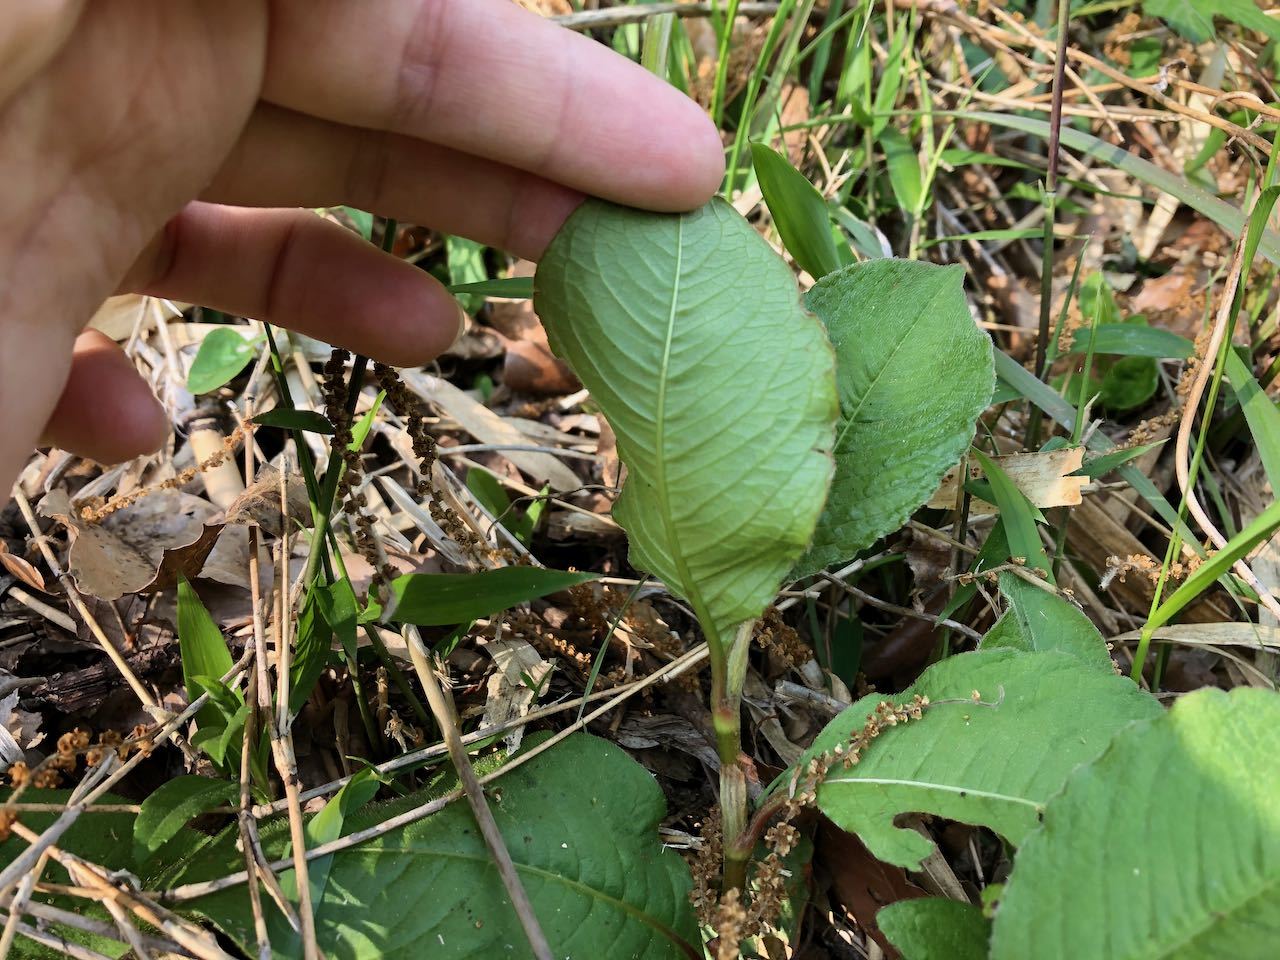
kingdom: Plantae
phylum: Tracheophyta
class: Magnoliopsida
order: Caryophyllales
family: Polygonaceae
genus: Persicaria
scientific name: Persicaria filiformis
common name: Asian jumpseed
